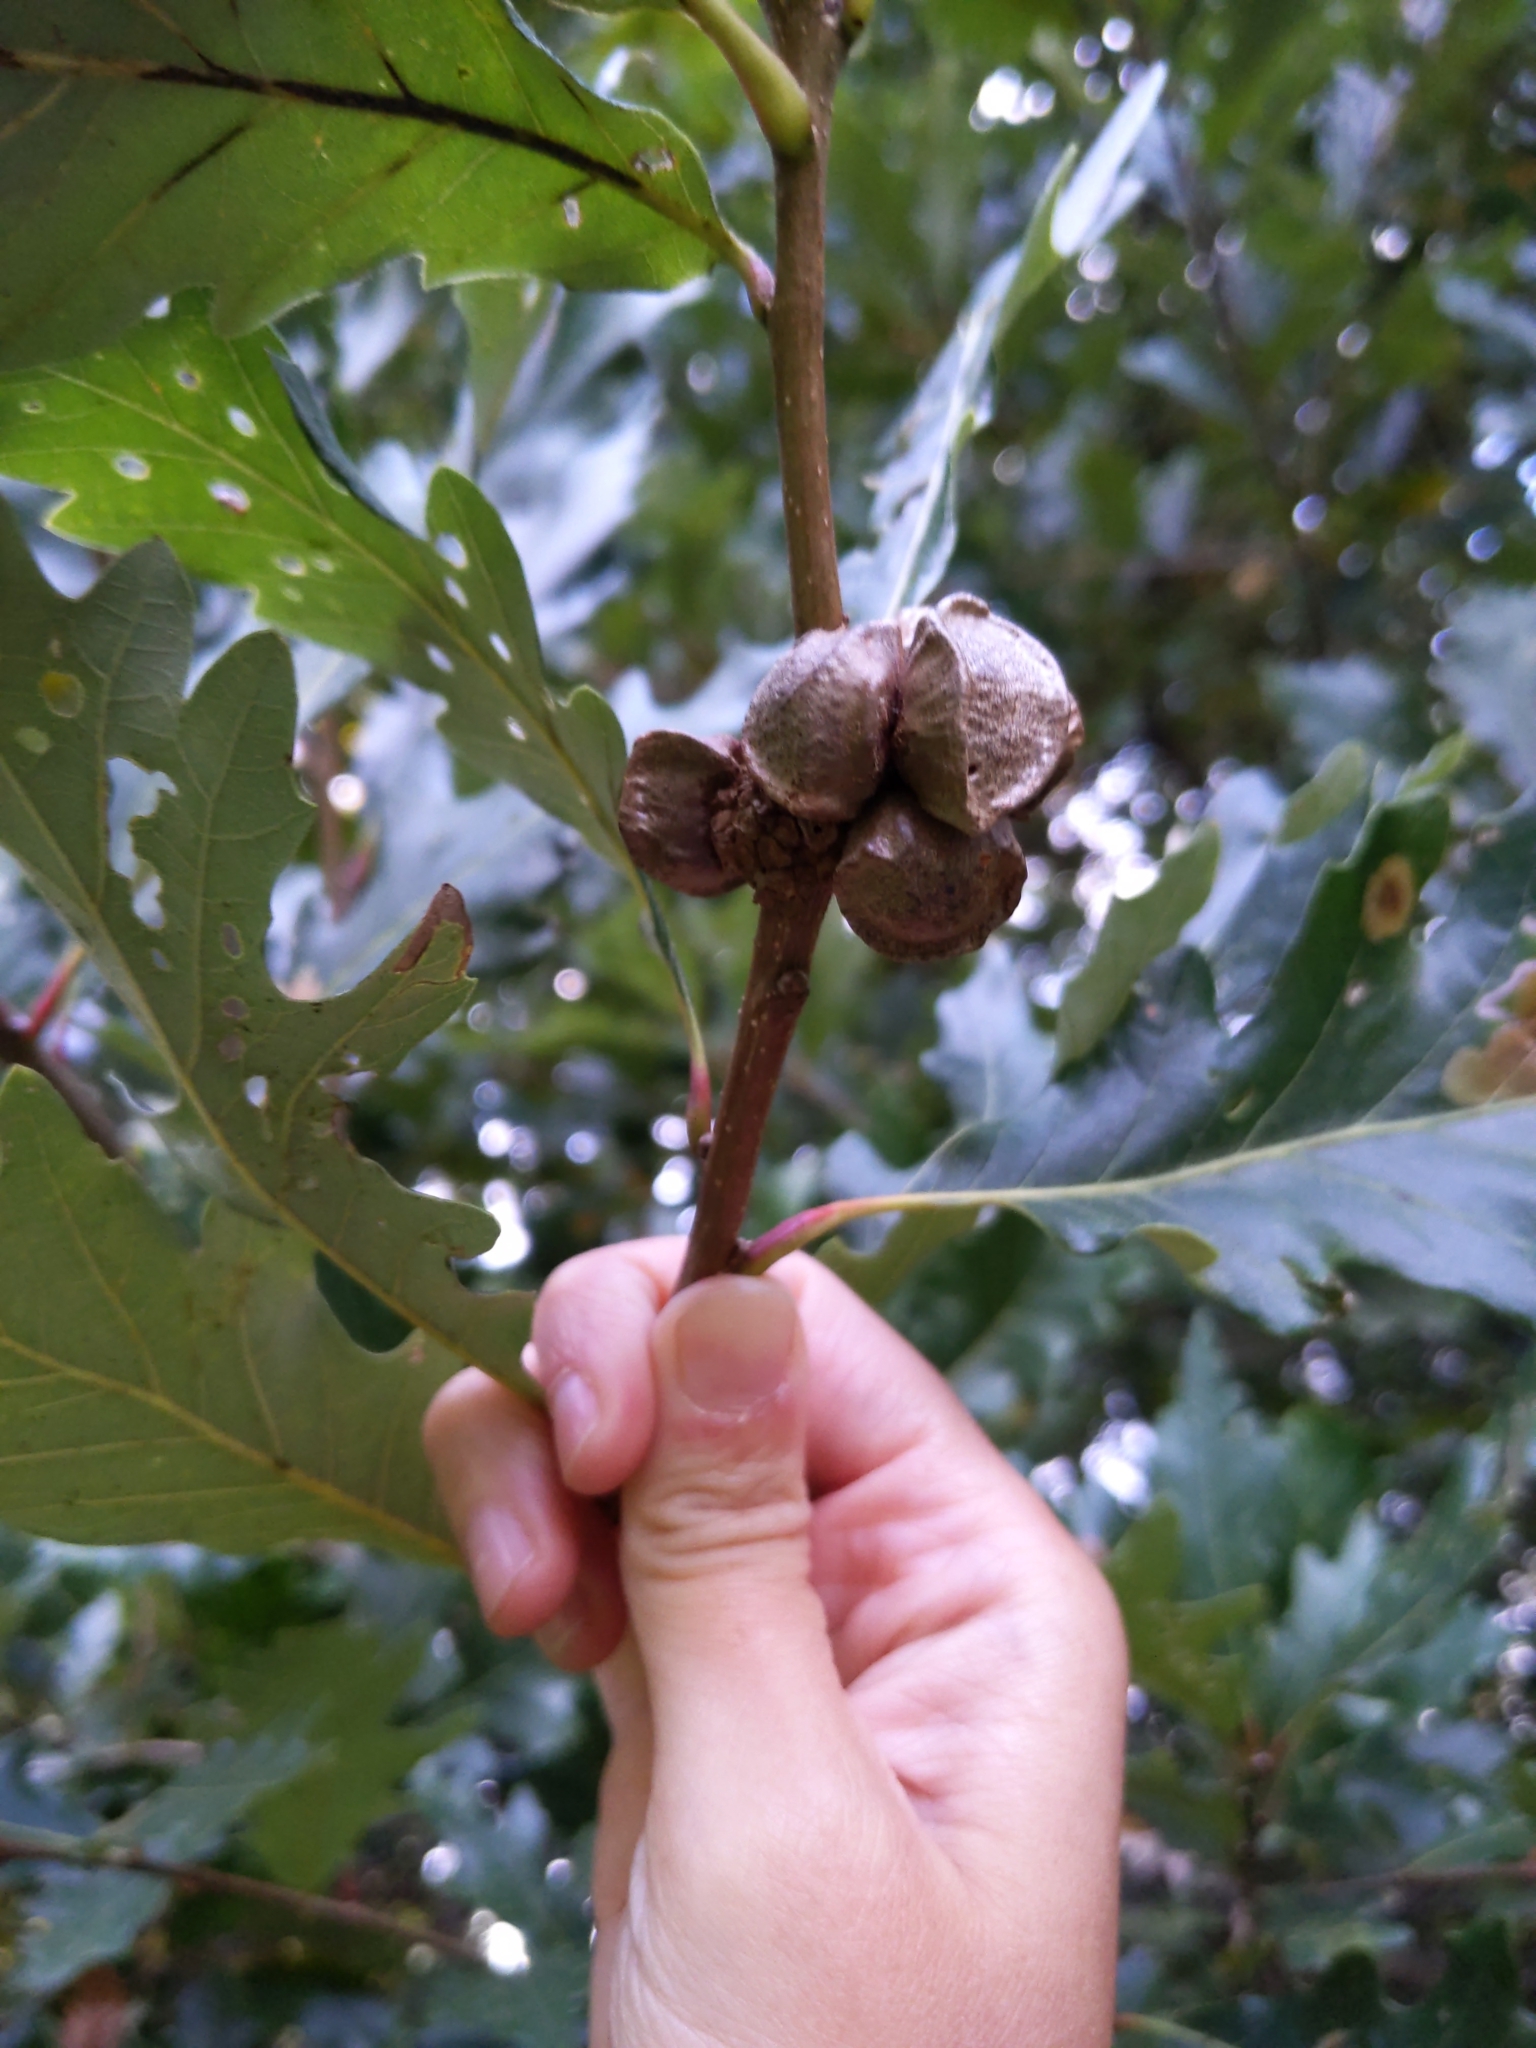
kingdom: Animalia
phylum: Arthropoda
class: Insecta
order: Hymenoptera
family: Cynipidae
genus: Andricus
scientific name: Andricus
